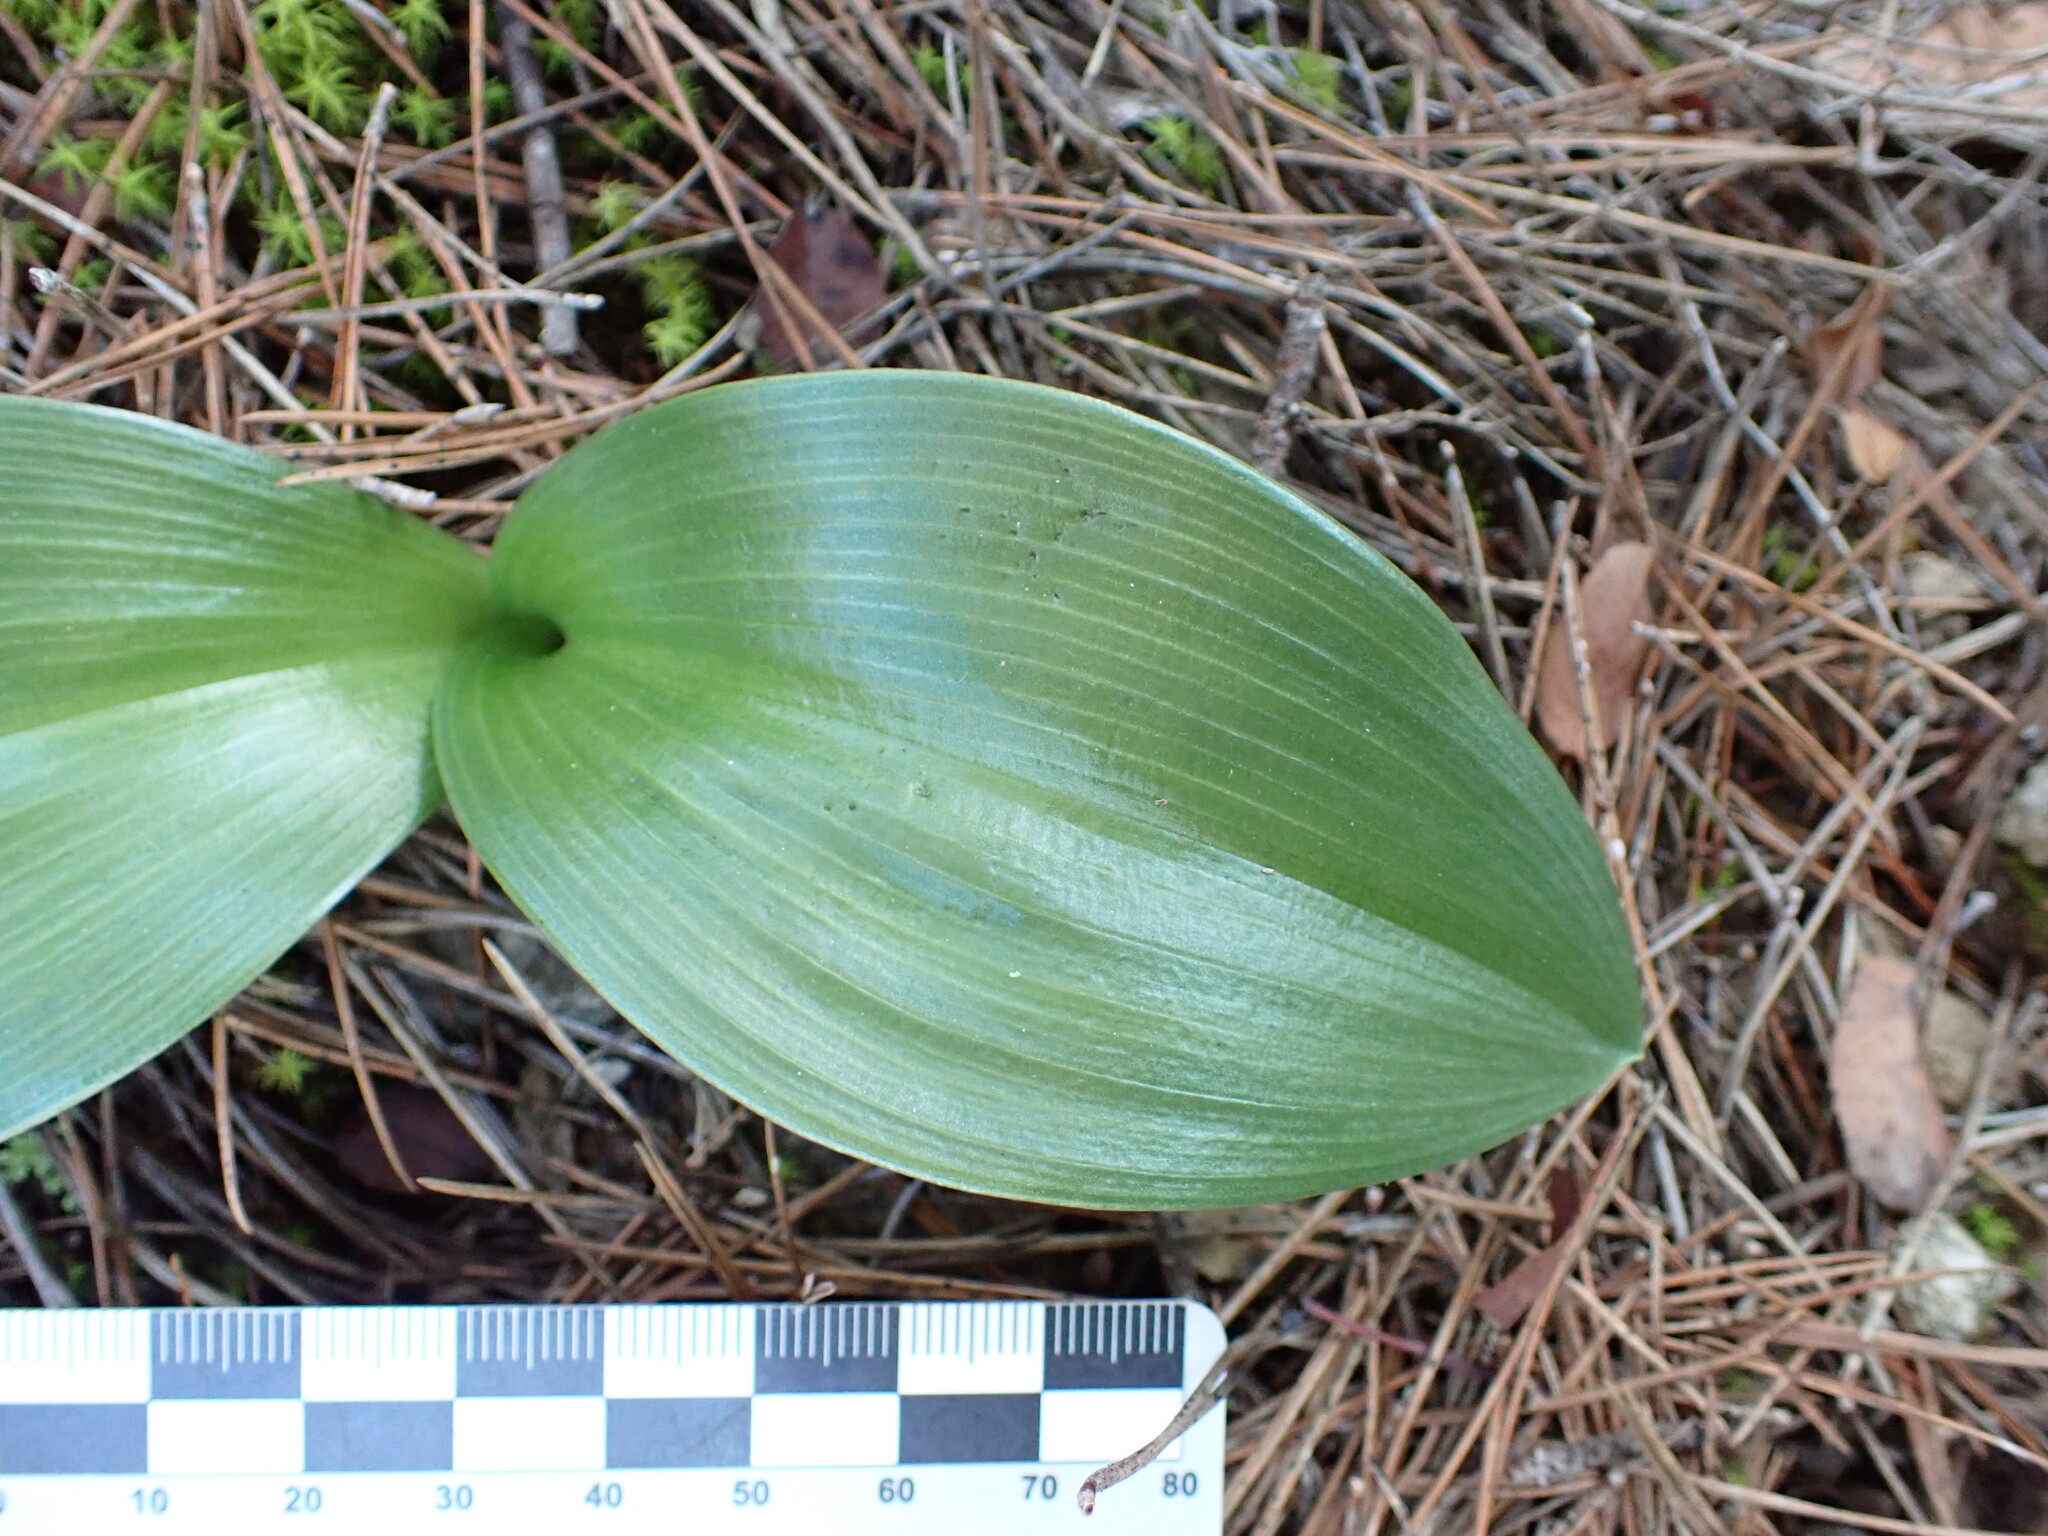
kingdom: Plantae
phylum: Tracheophyta
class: Liliopsida
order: Asparagales
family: Orchidaceae
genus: Himantoglossum
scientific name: Himantoglossum robertianum
